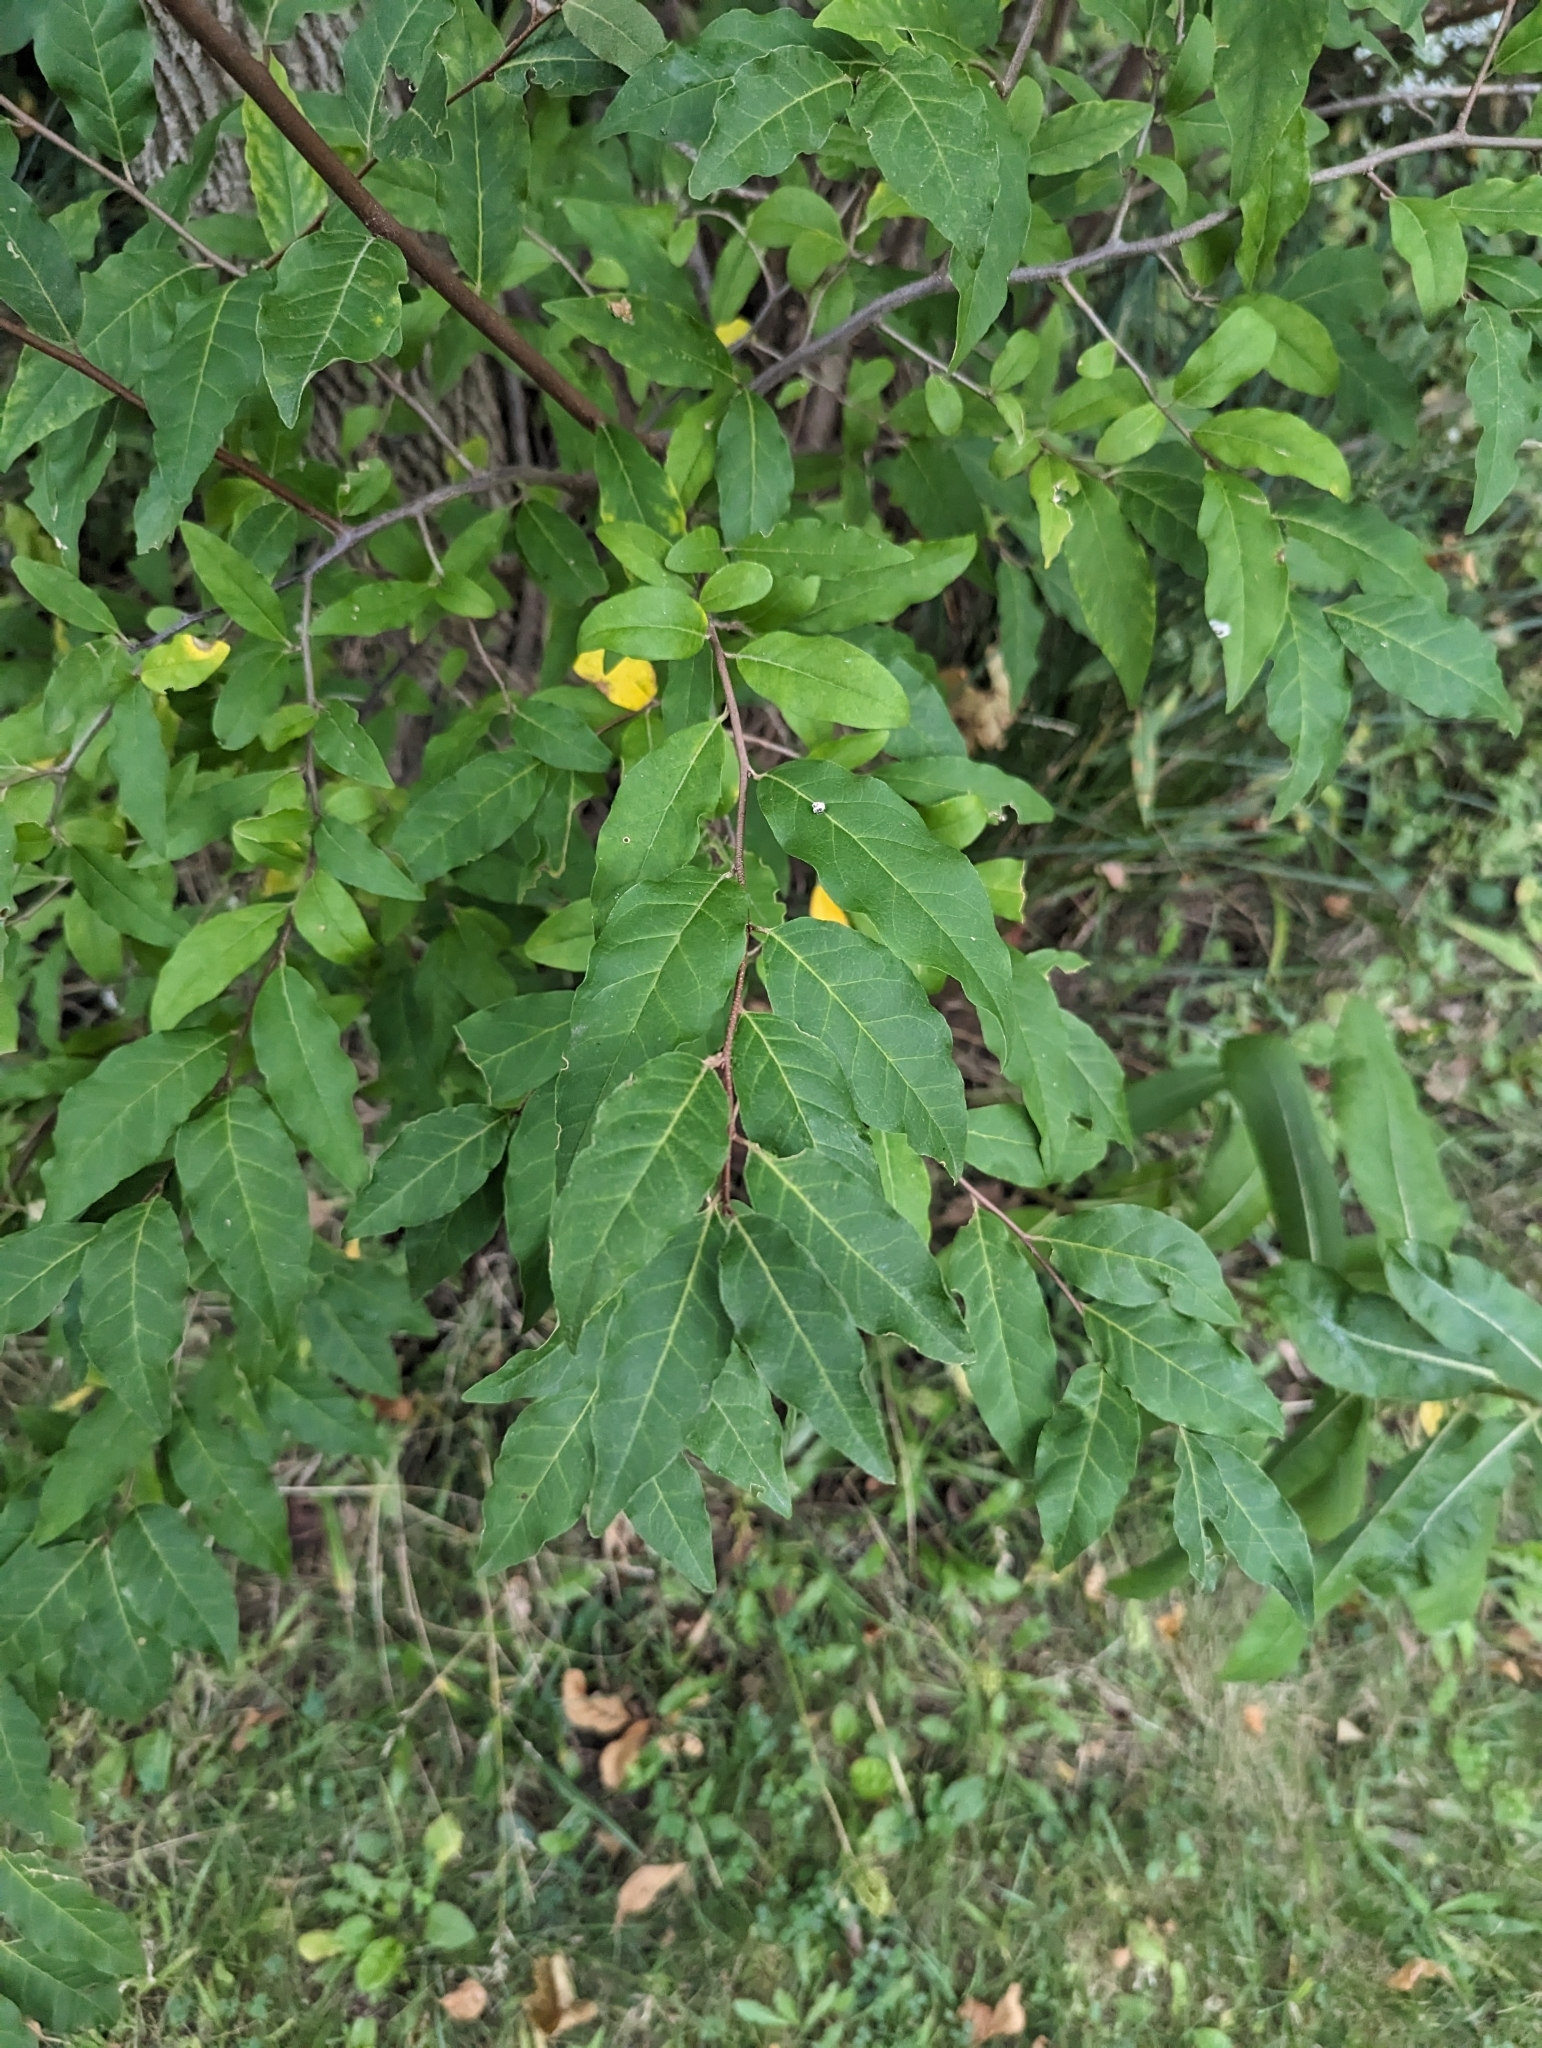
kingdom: Plantae
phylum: Tracheophyta
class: Magnoliopsida
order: Rosales
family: Elaeagnaceae
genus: Elaeagnus
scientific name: Elaeagnus umbellata
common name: Autumn olive
